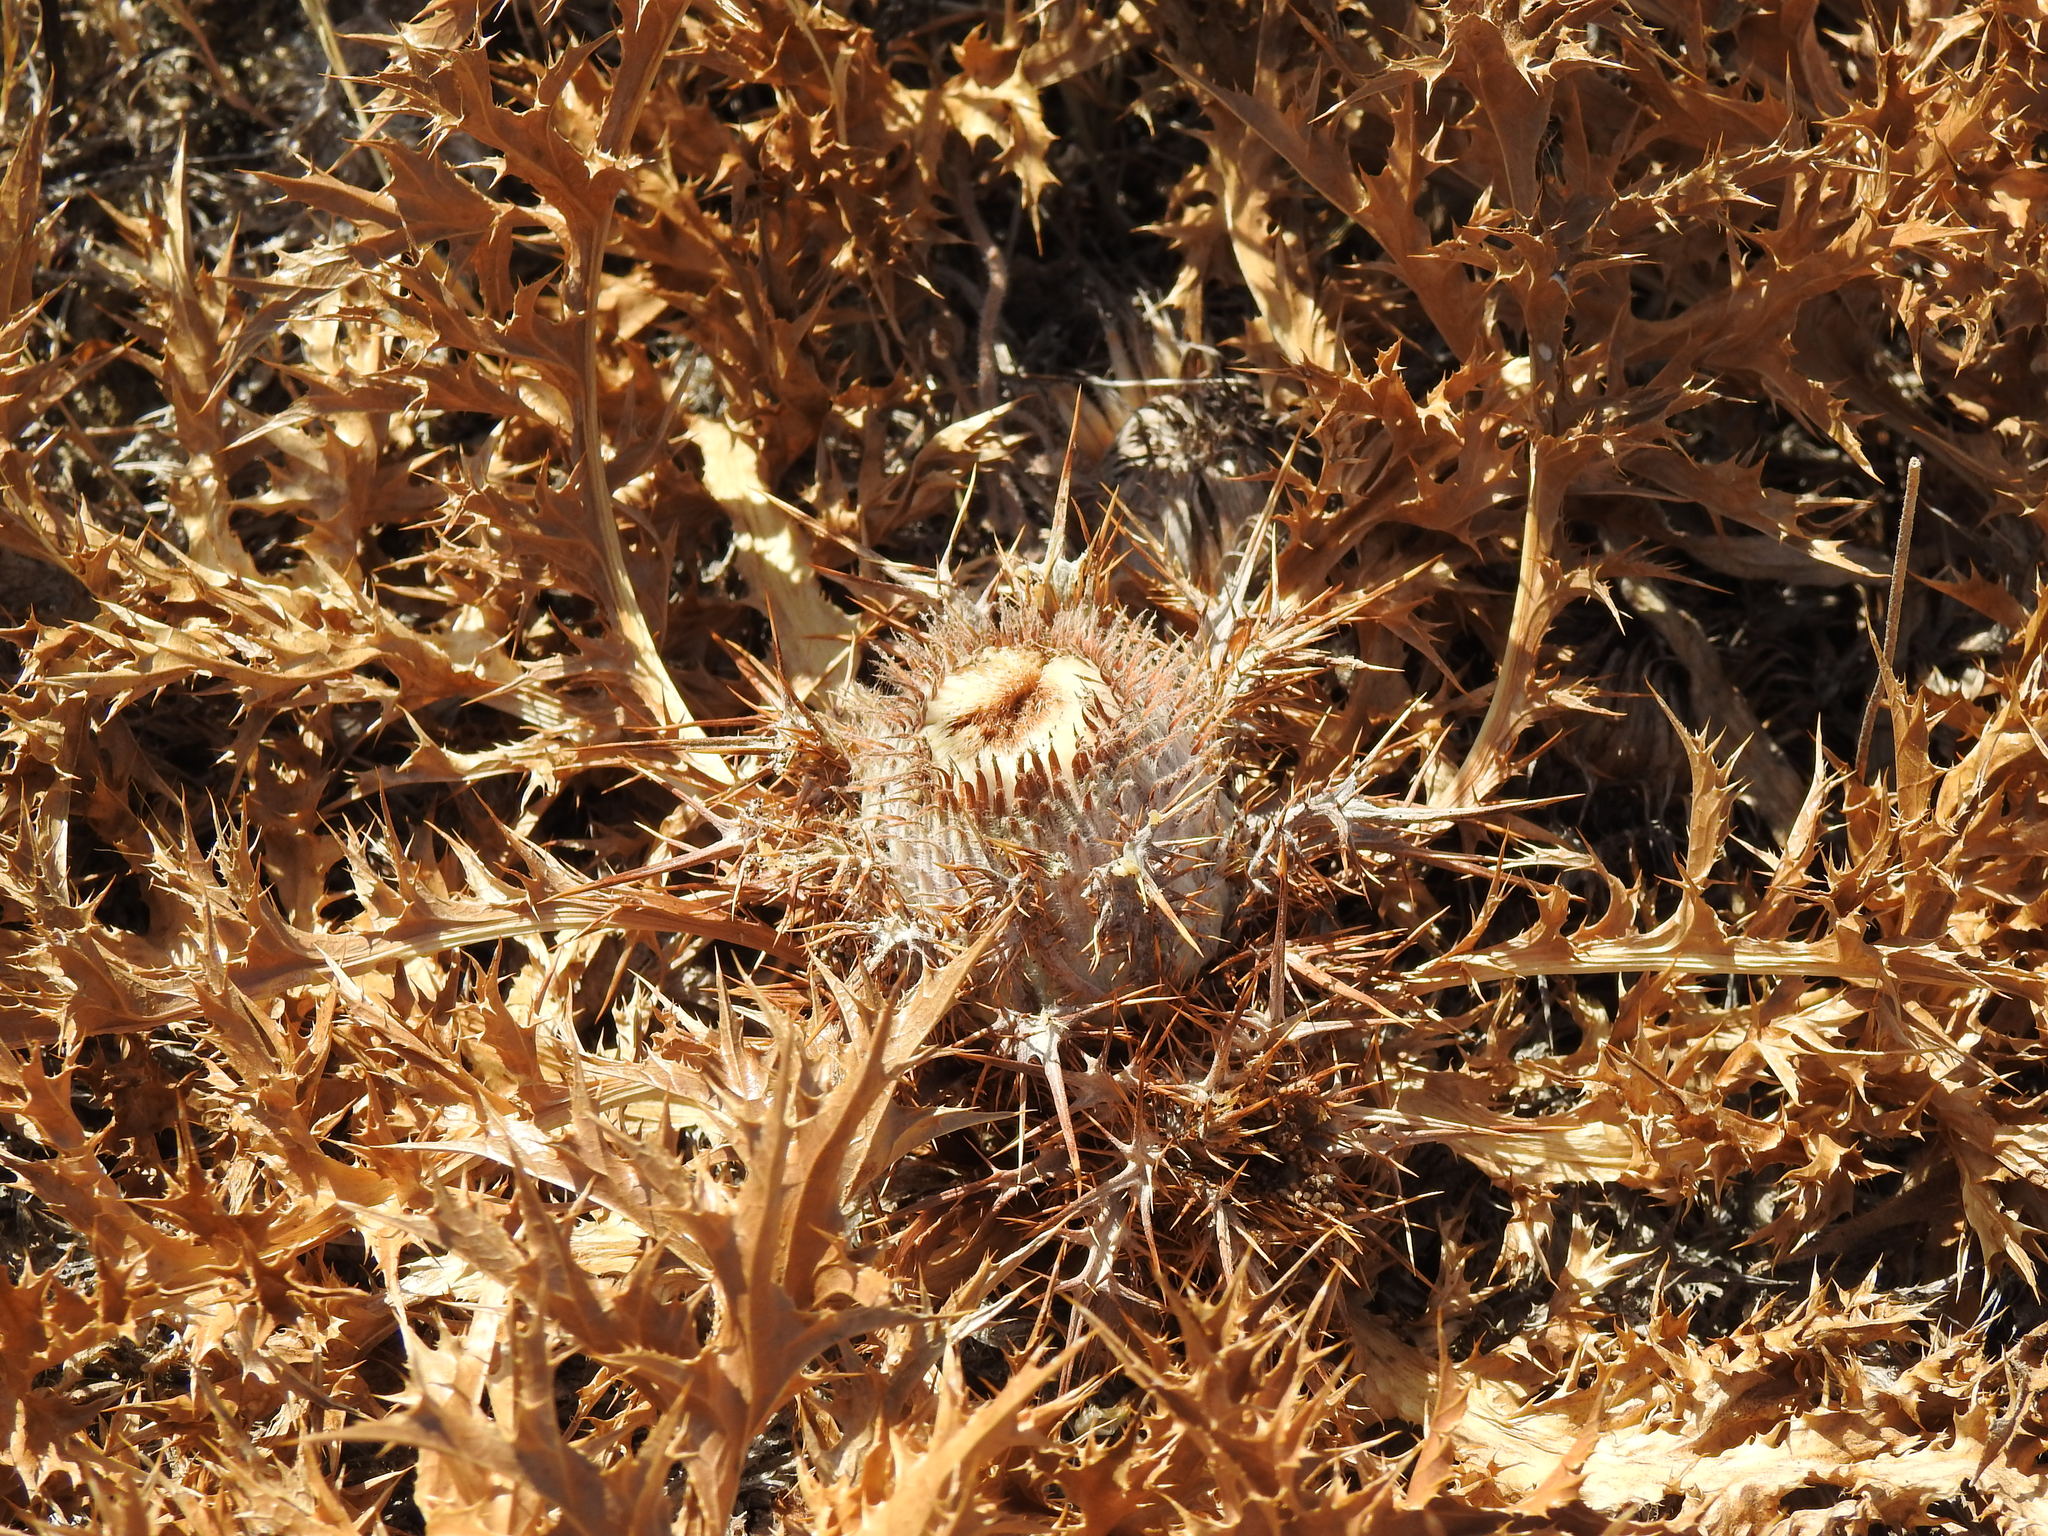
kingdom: Plantae
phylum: Tracheophyta
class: Magnoliopsida
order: Asterales
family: Asteraceae
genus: Chamaeleon
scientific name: Chamaeleon gummifer
